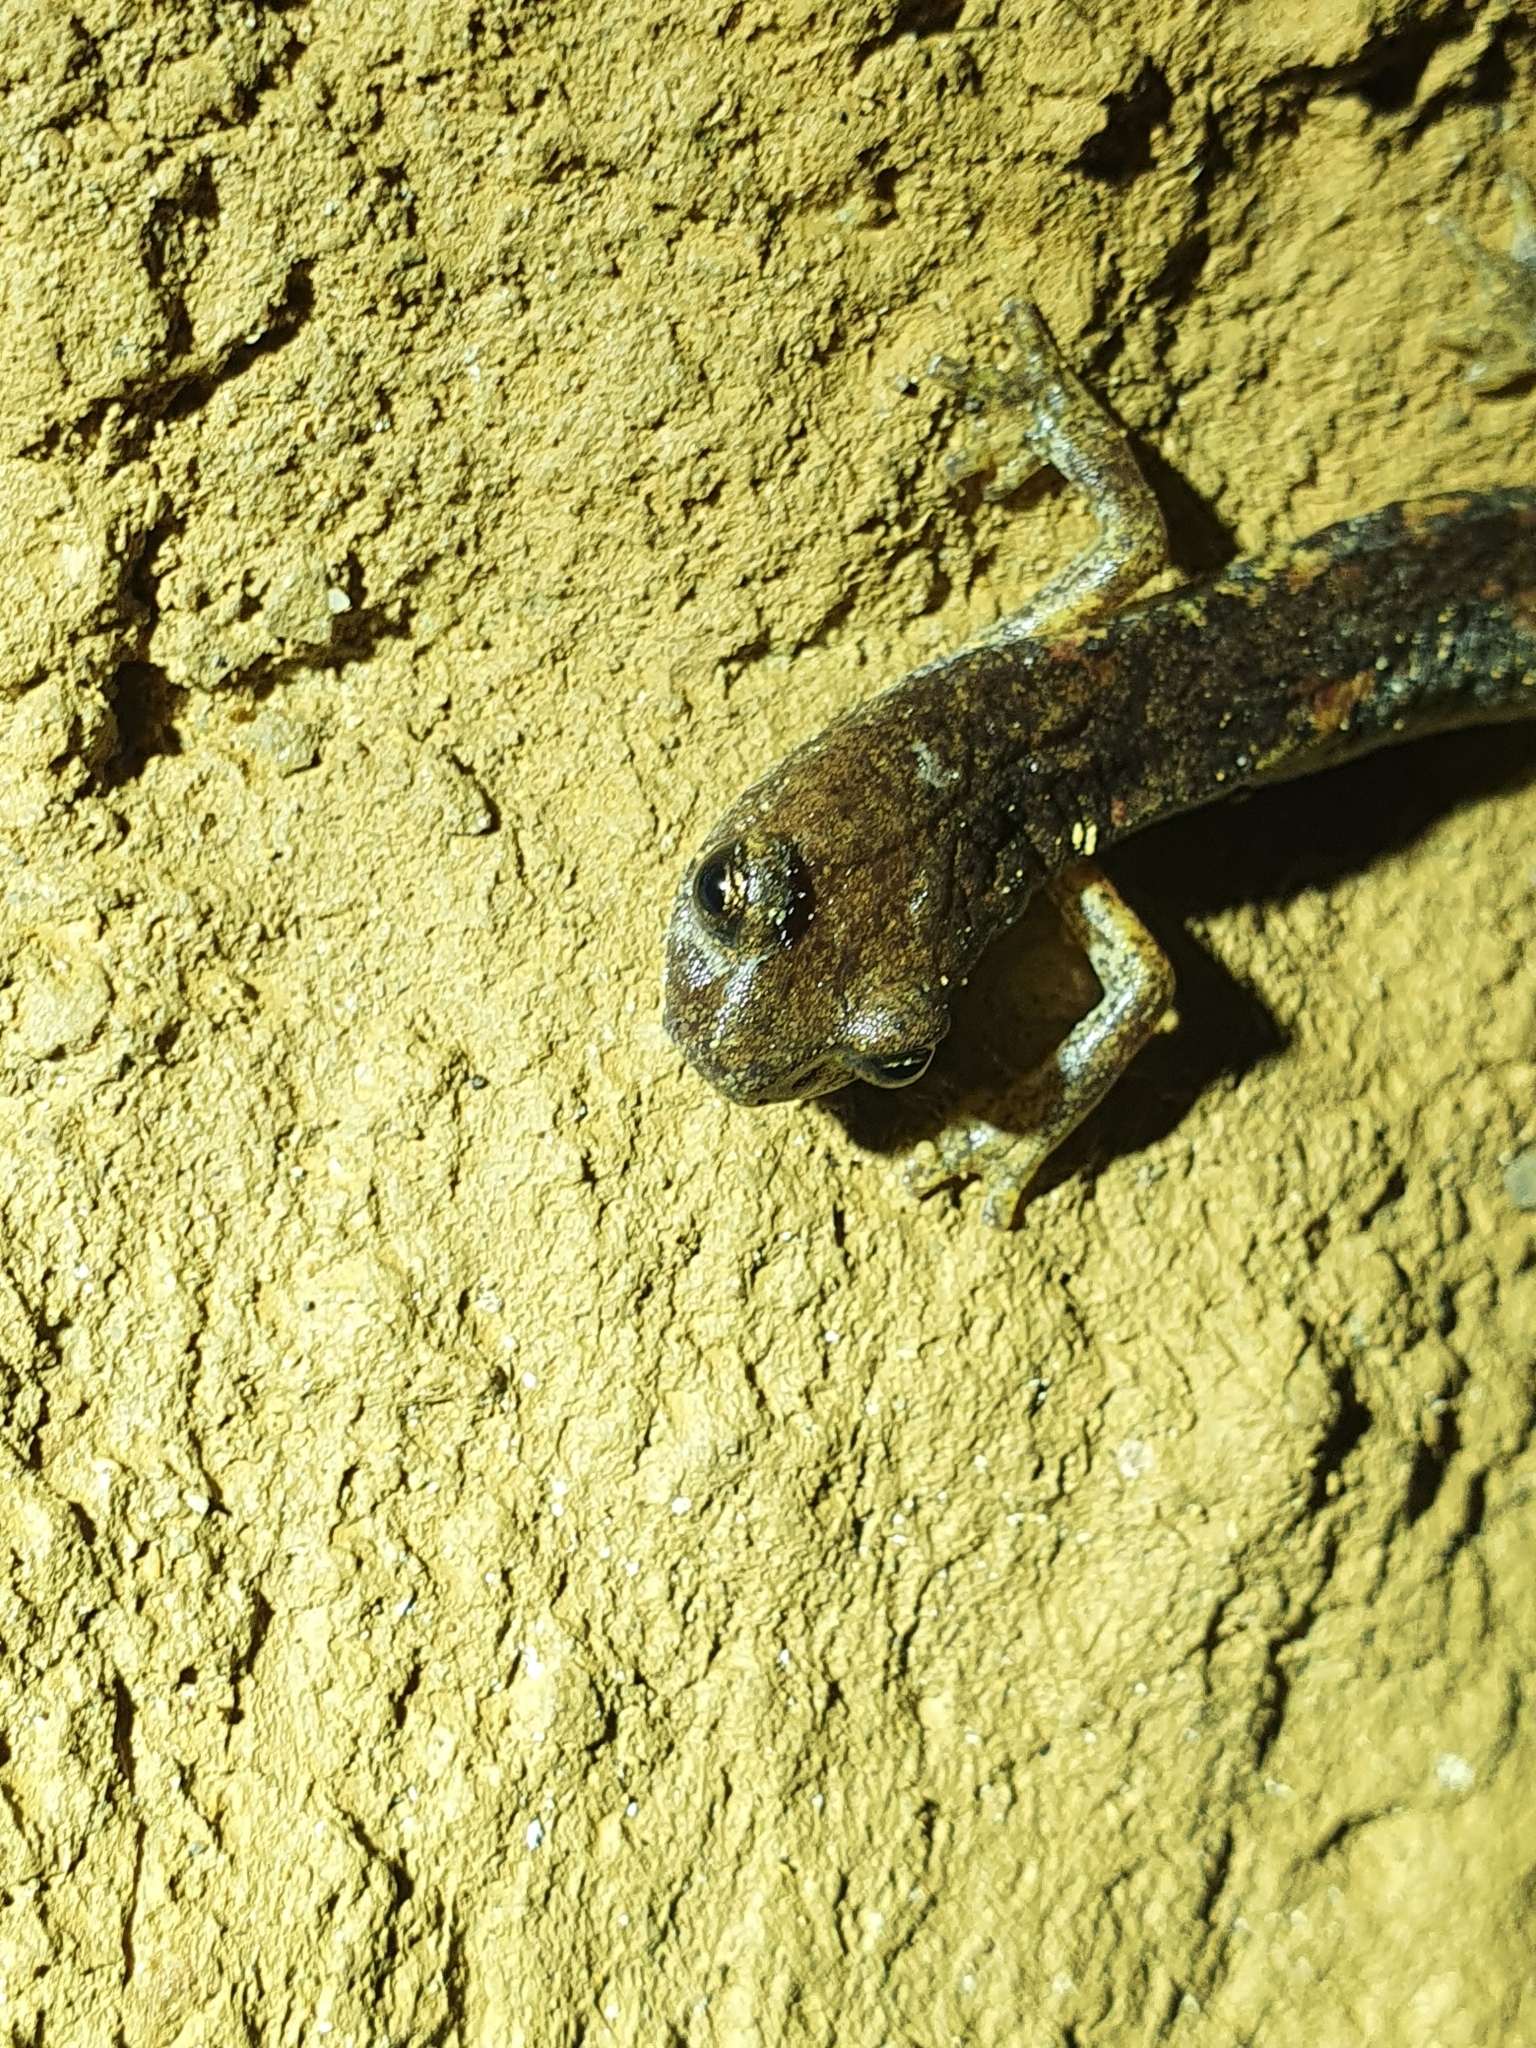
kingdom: Animalia
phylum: Chordata
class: Amphibia
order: Caudata
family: Plethodontidae
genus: Speleomantes
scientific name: Speleomantes ambrosii
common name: Ambrosi's cave salamander
